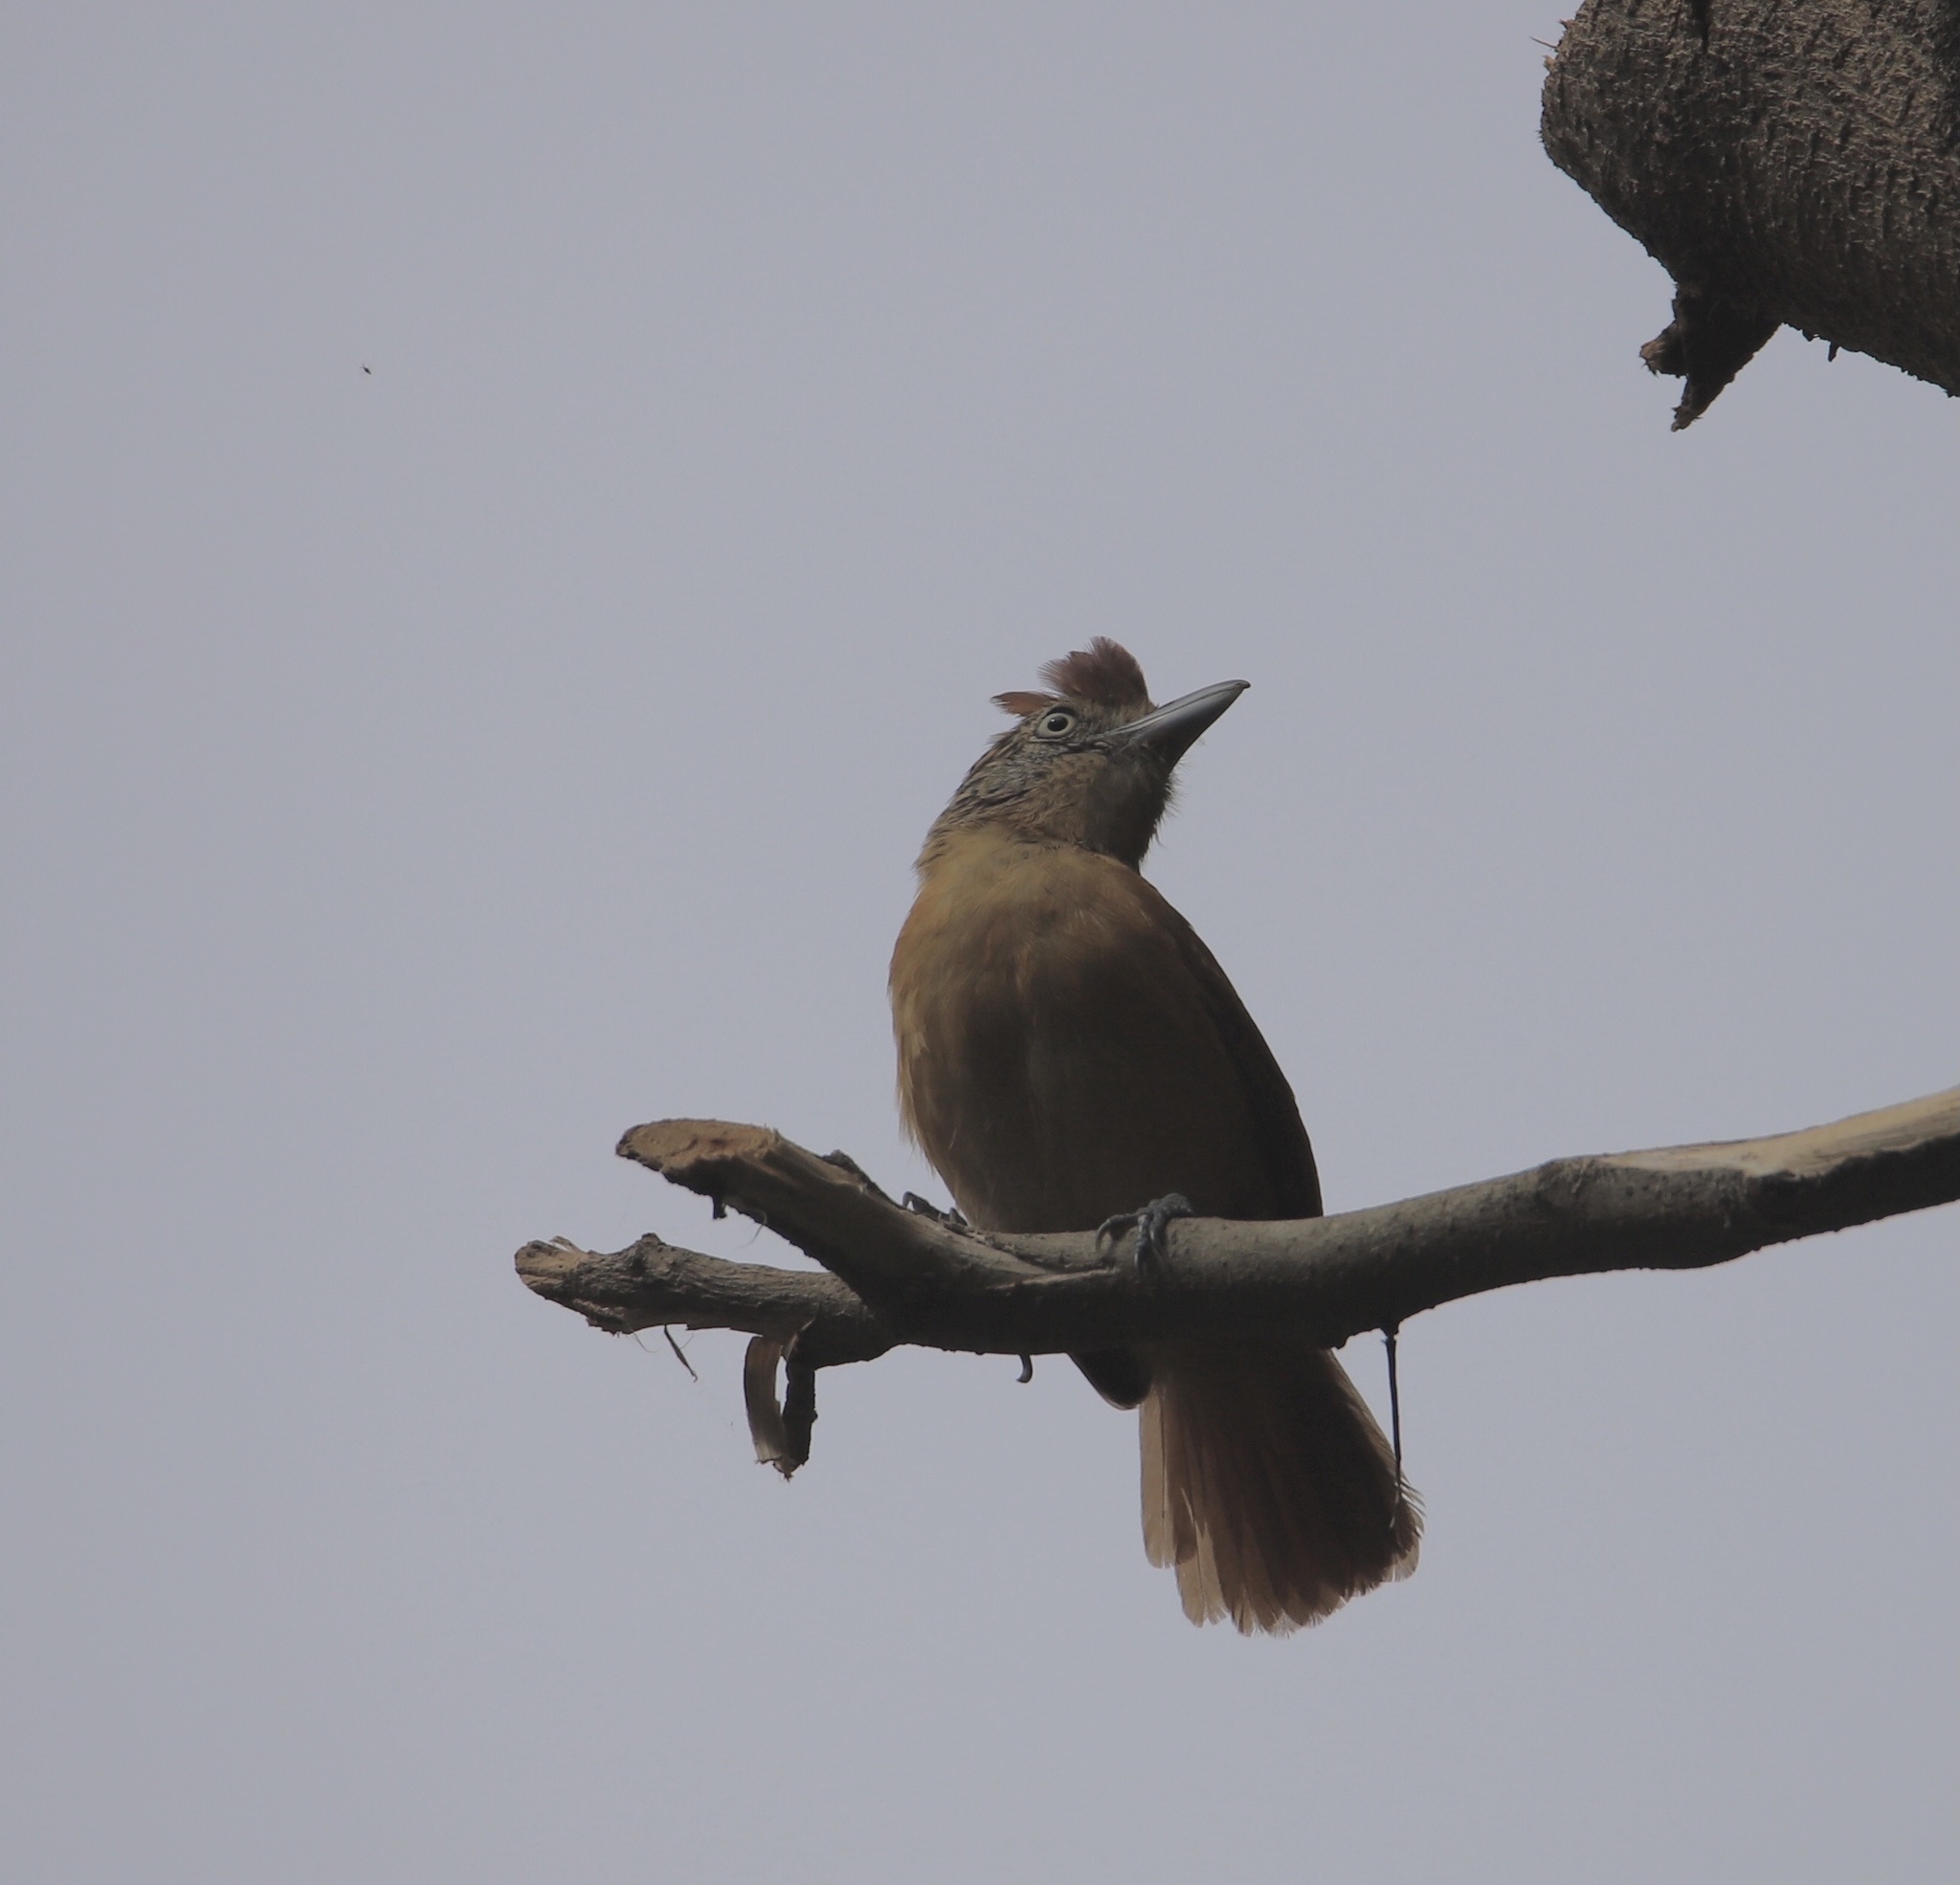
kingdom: Animalia
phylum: Chordata
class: Aves
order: Passeriformes
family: Thamnophilidae
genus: Thamnophilus
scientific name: Thamnophilus doliatus
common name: Barred antshrike
